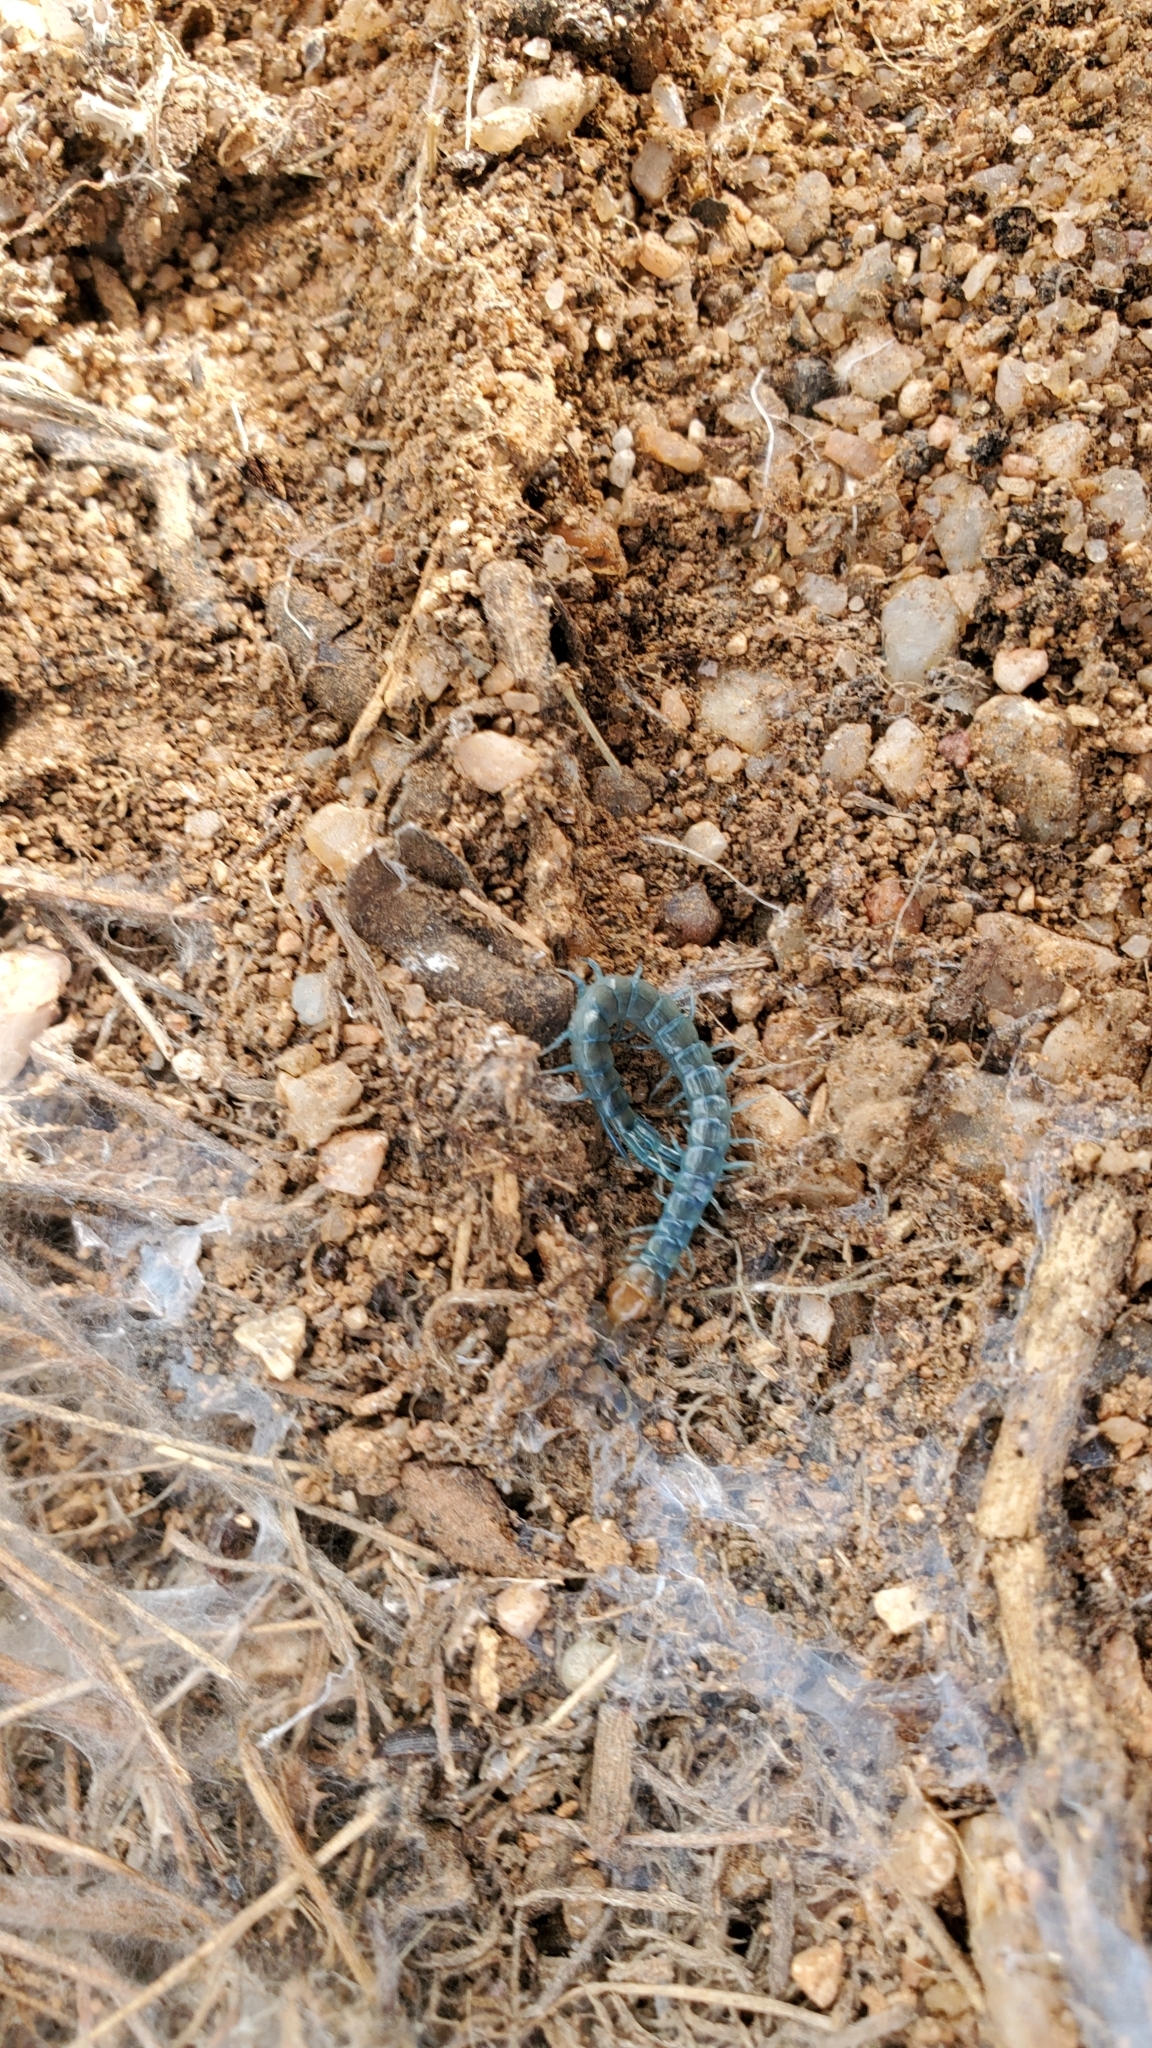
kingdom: Animalia
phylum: Arthropoda
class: Chilopoda
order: Scolopendromorpha
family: Scolopendridae
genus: Scolopendra
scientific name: Scolopendra polymorpha
